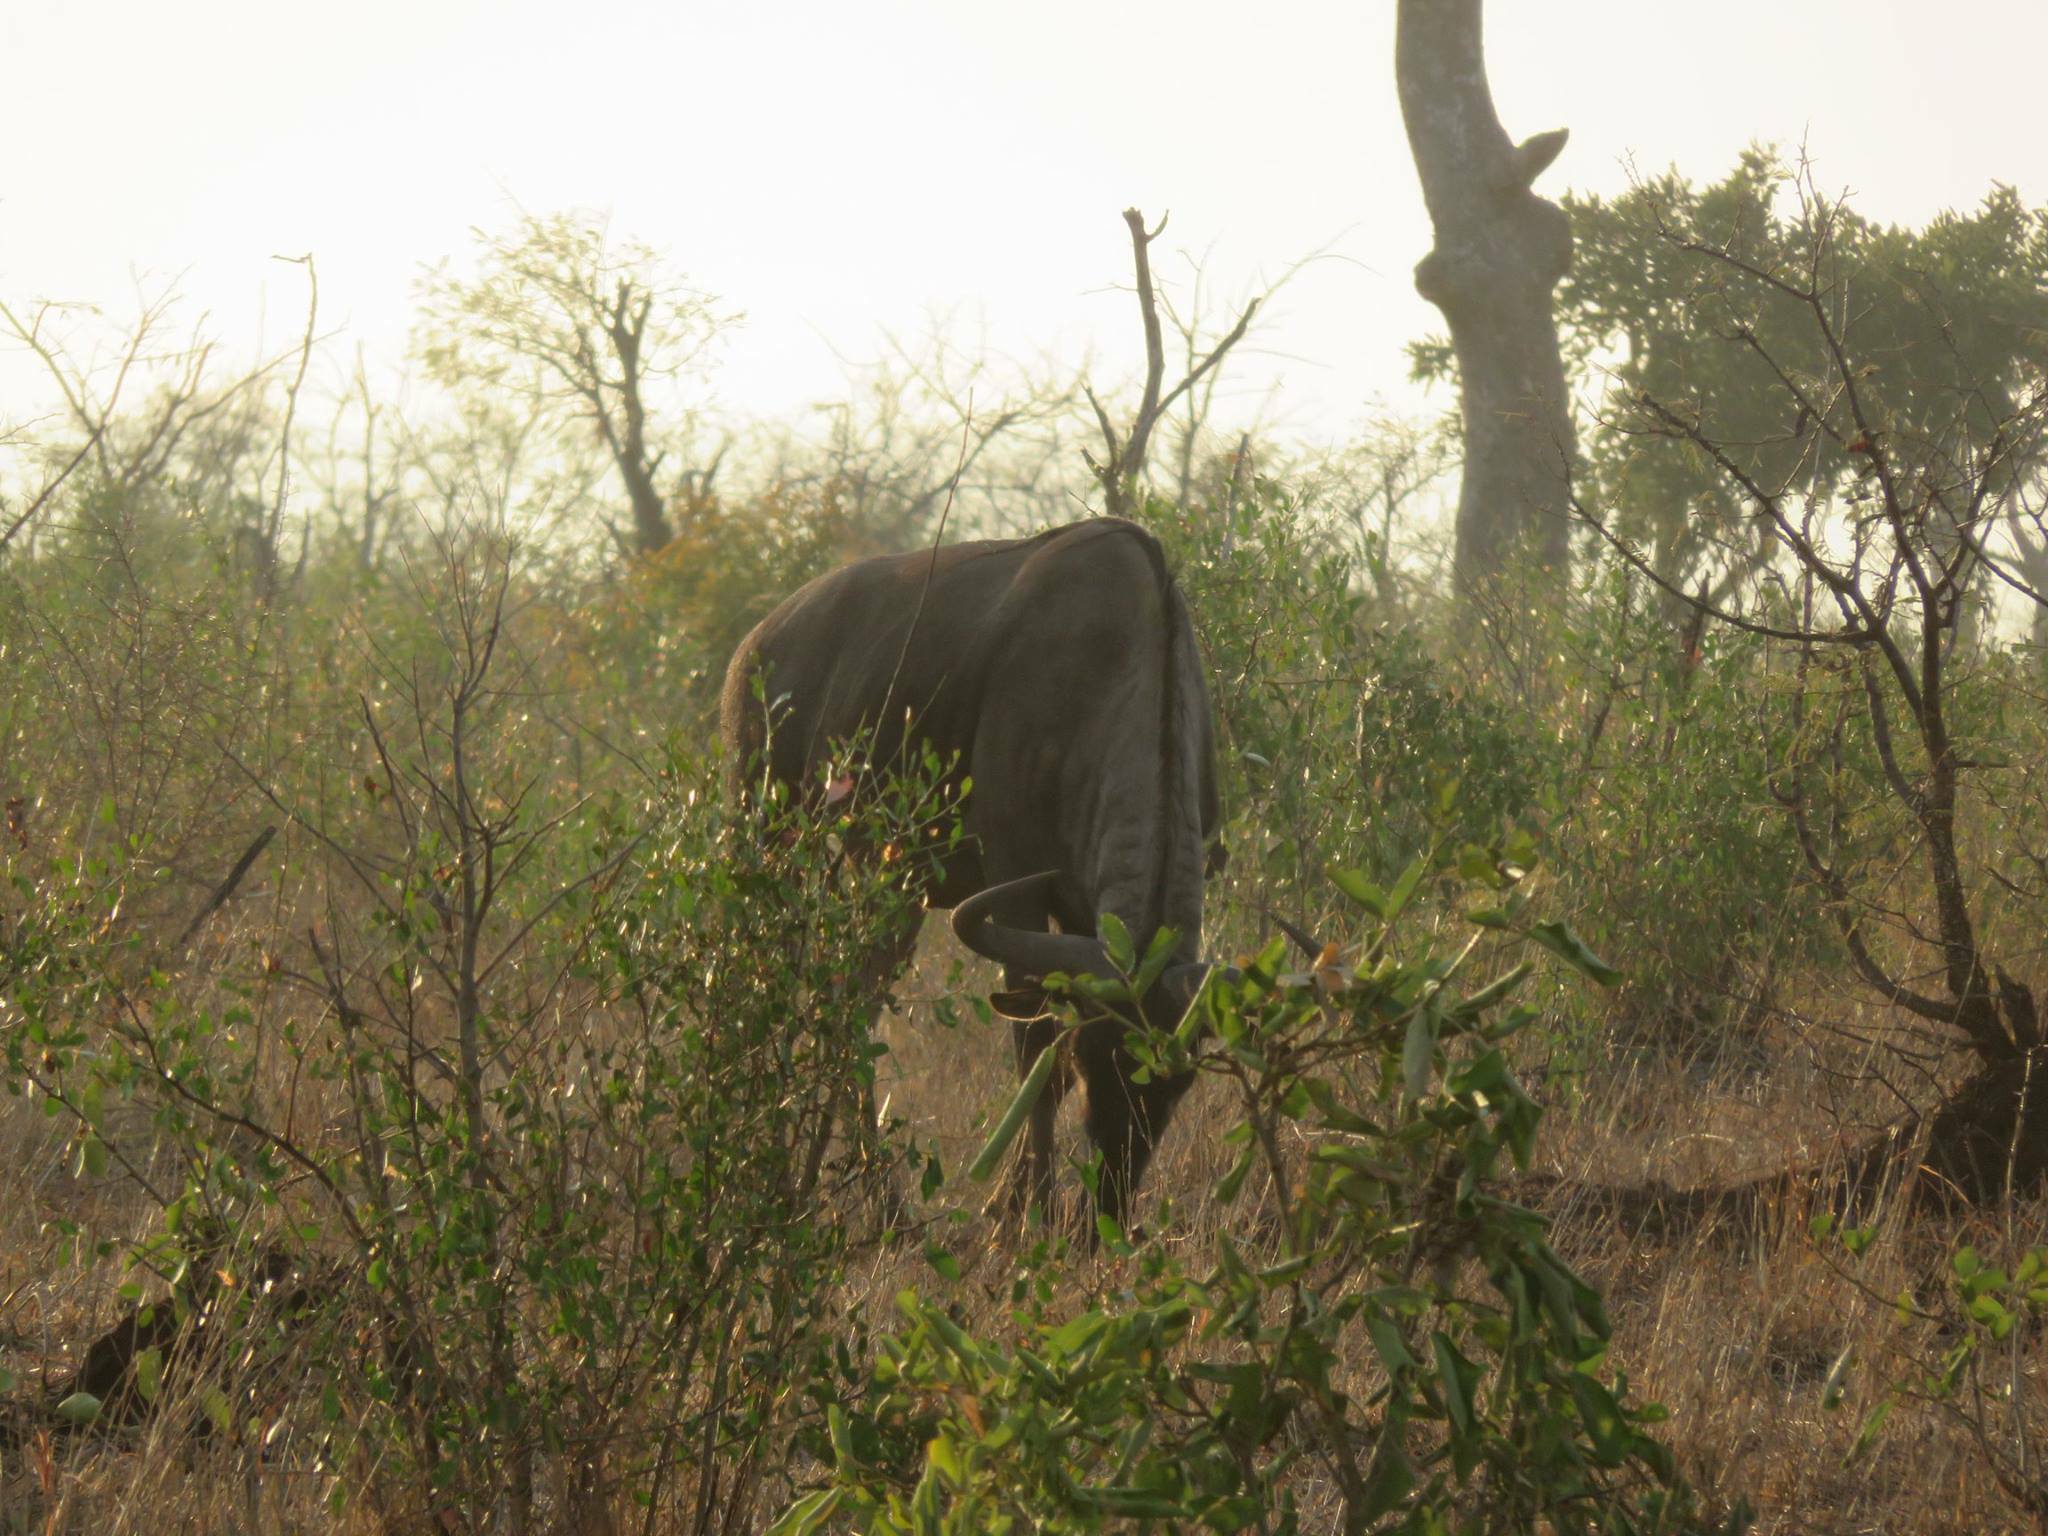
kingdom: Animalia
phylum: Chordata
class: Mammalia
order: Artiodactyla
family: Bovidae
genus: Connochaetes
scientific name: Connochaetes taurinus
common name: Blue wildebeest
